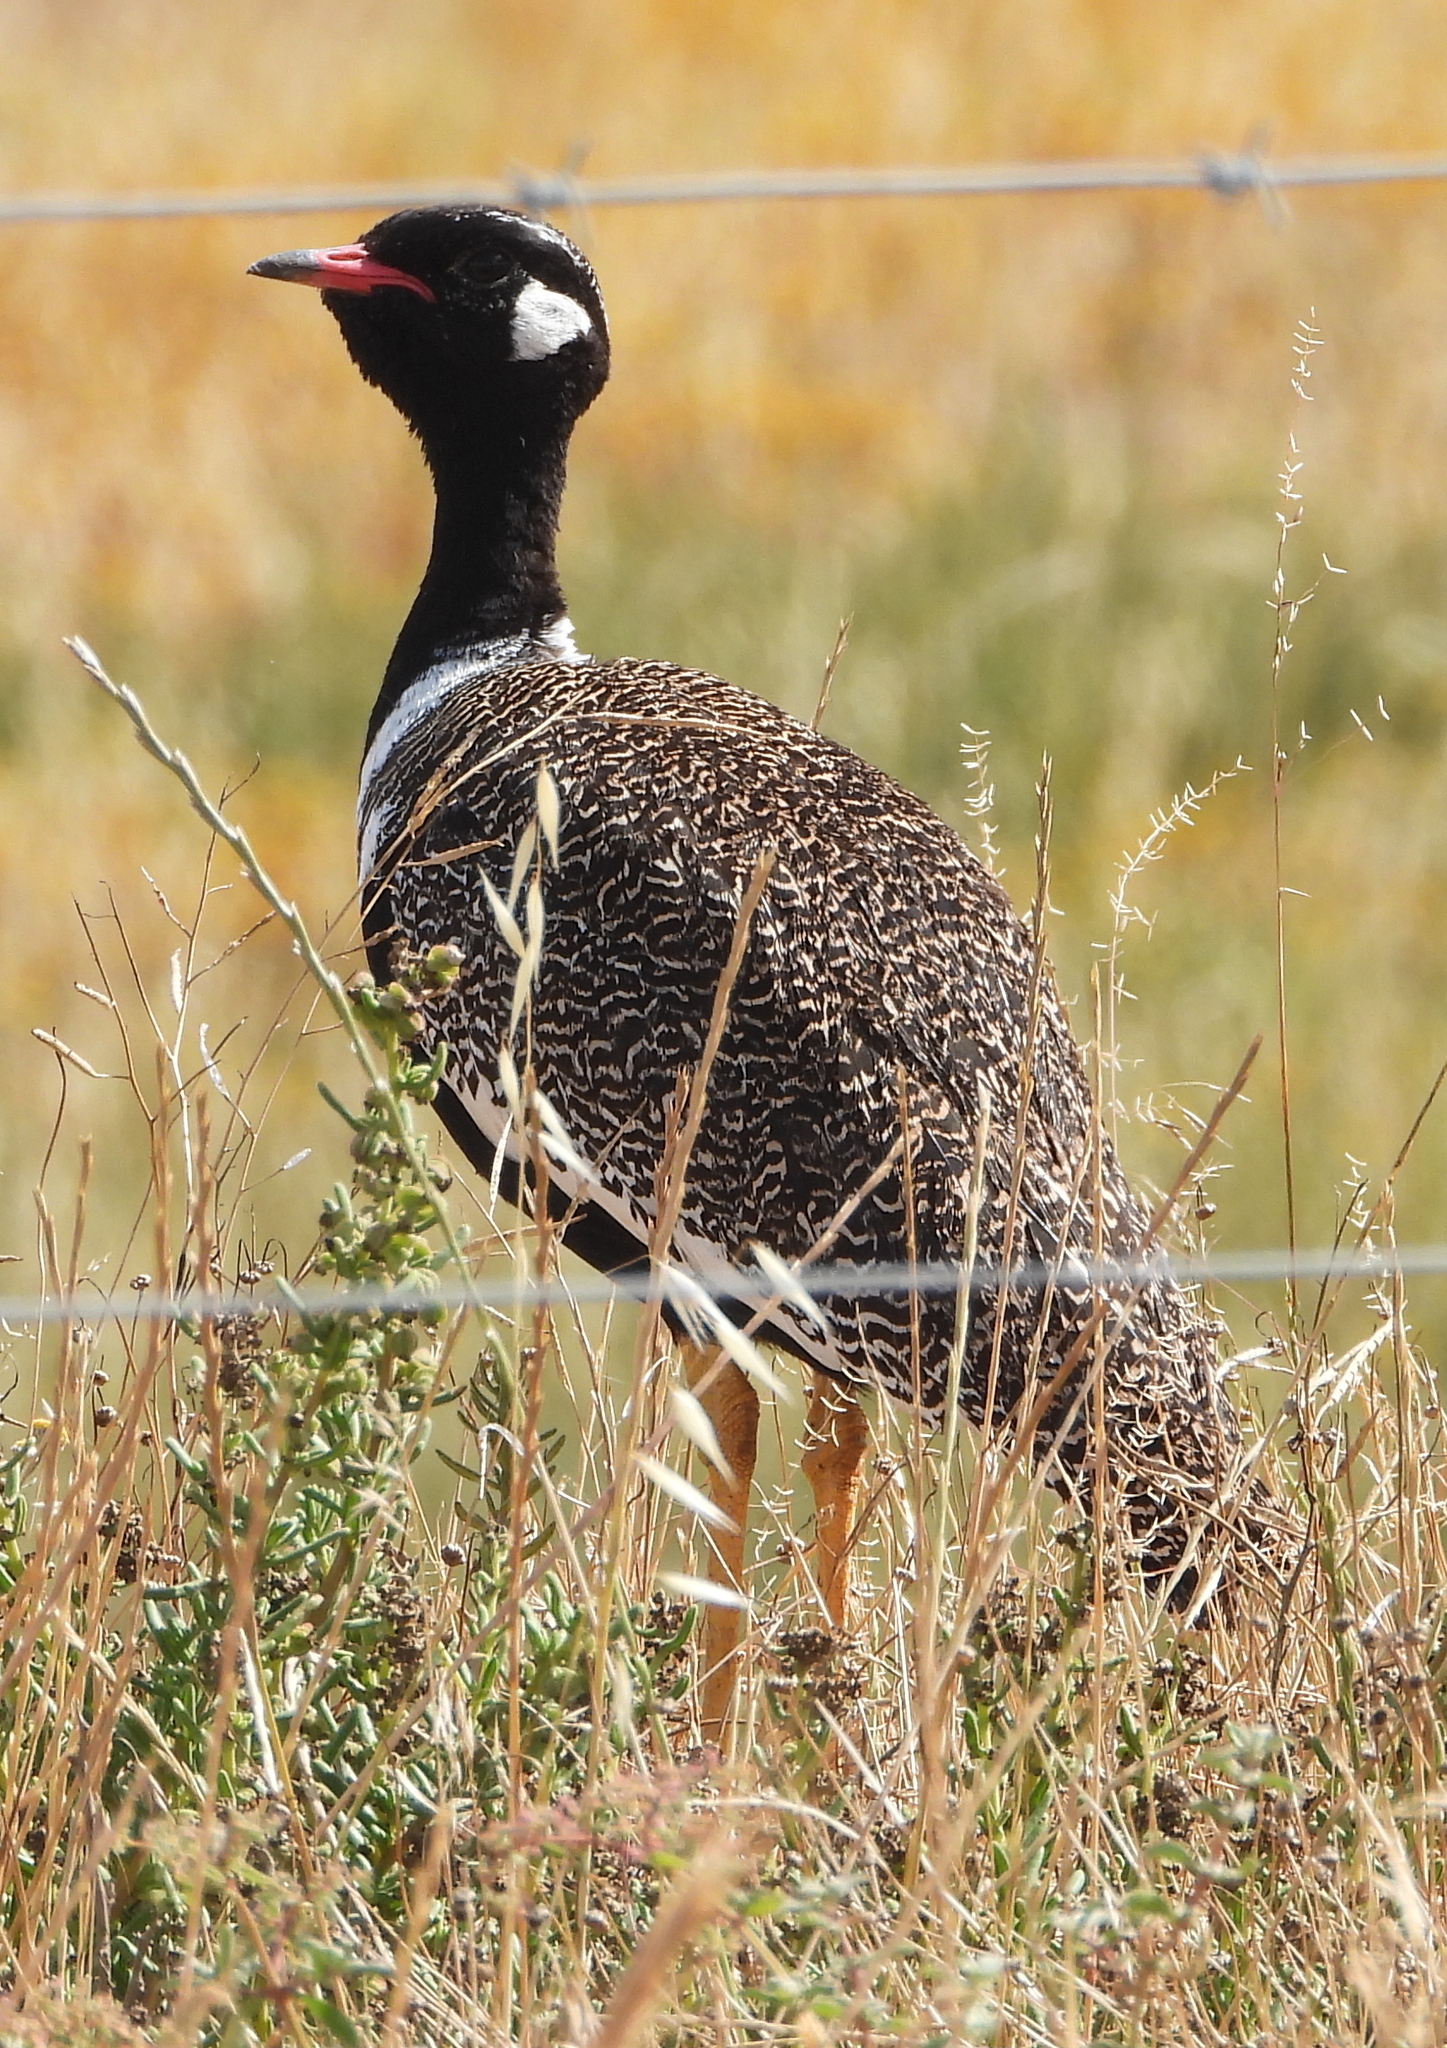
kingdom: Animalia
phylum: Chordata
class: Aves
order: Otidiformes
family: Otididae
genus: Afrotis
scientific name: Afrotis afra
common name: Southern black korhaan
